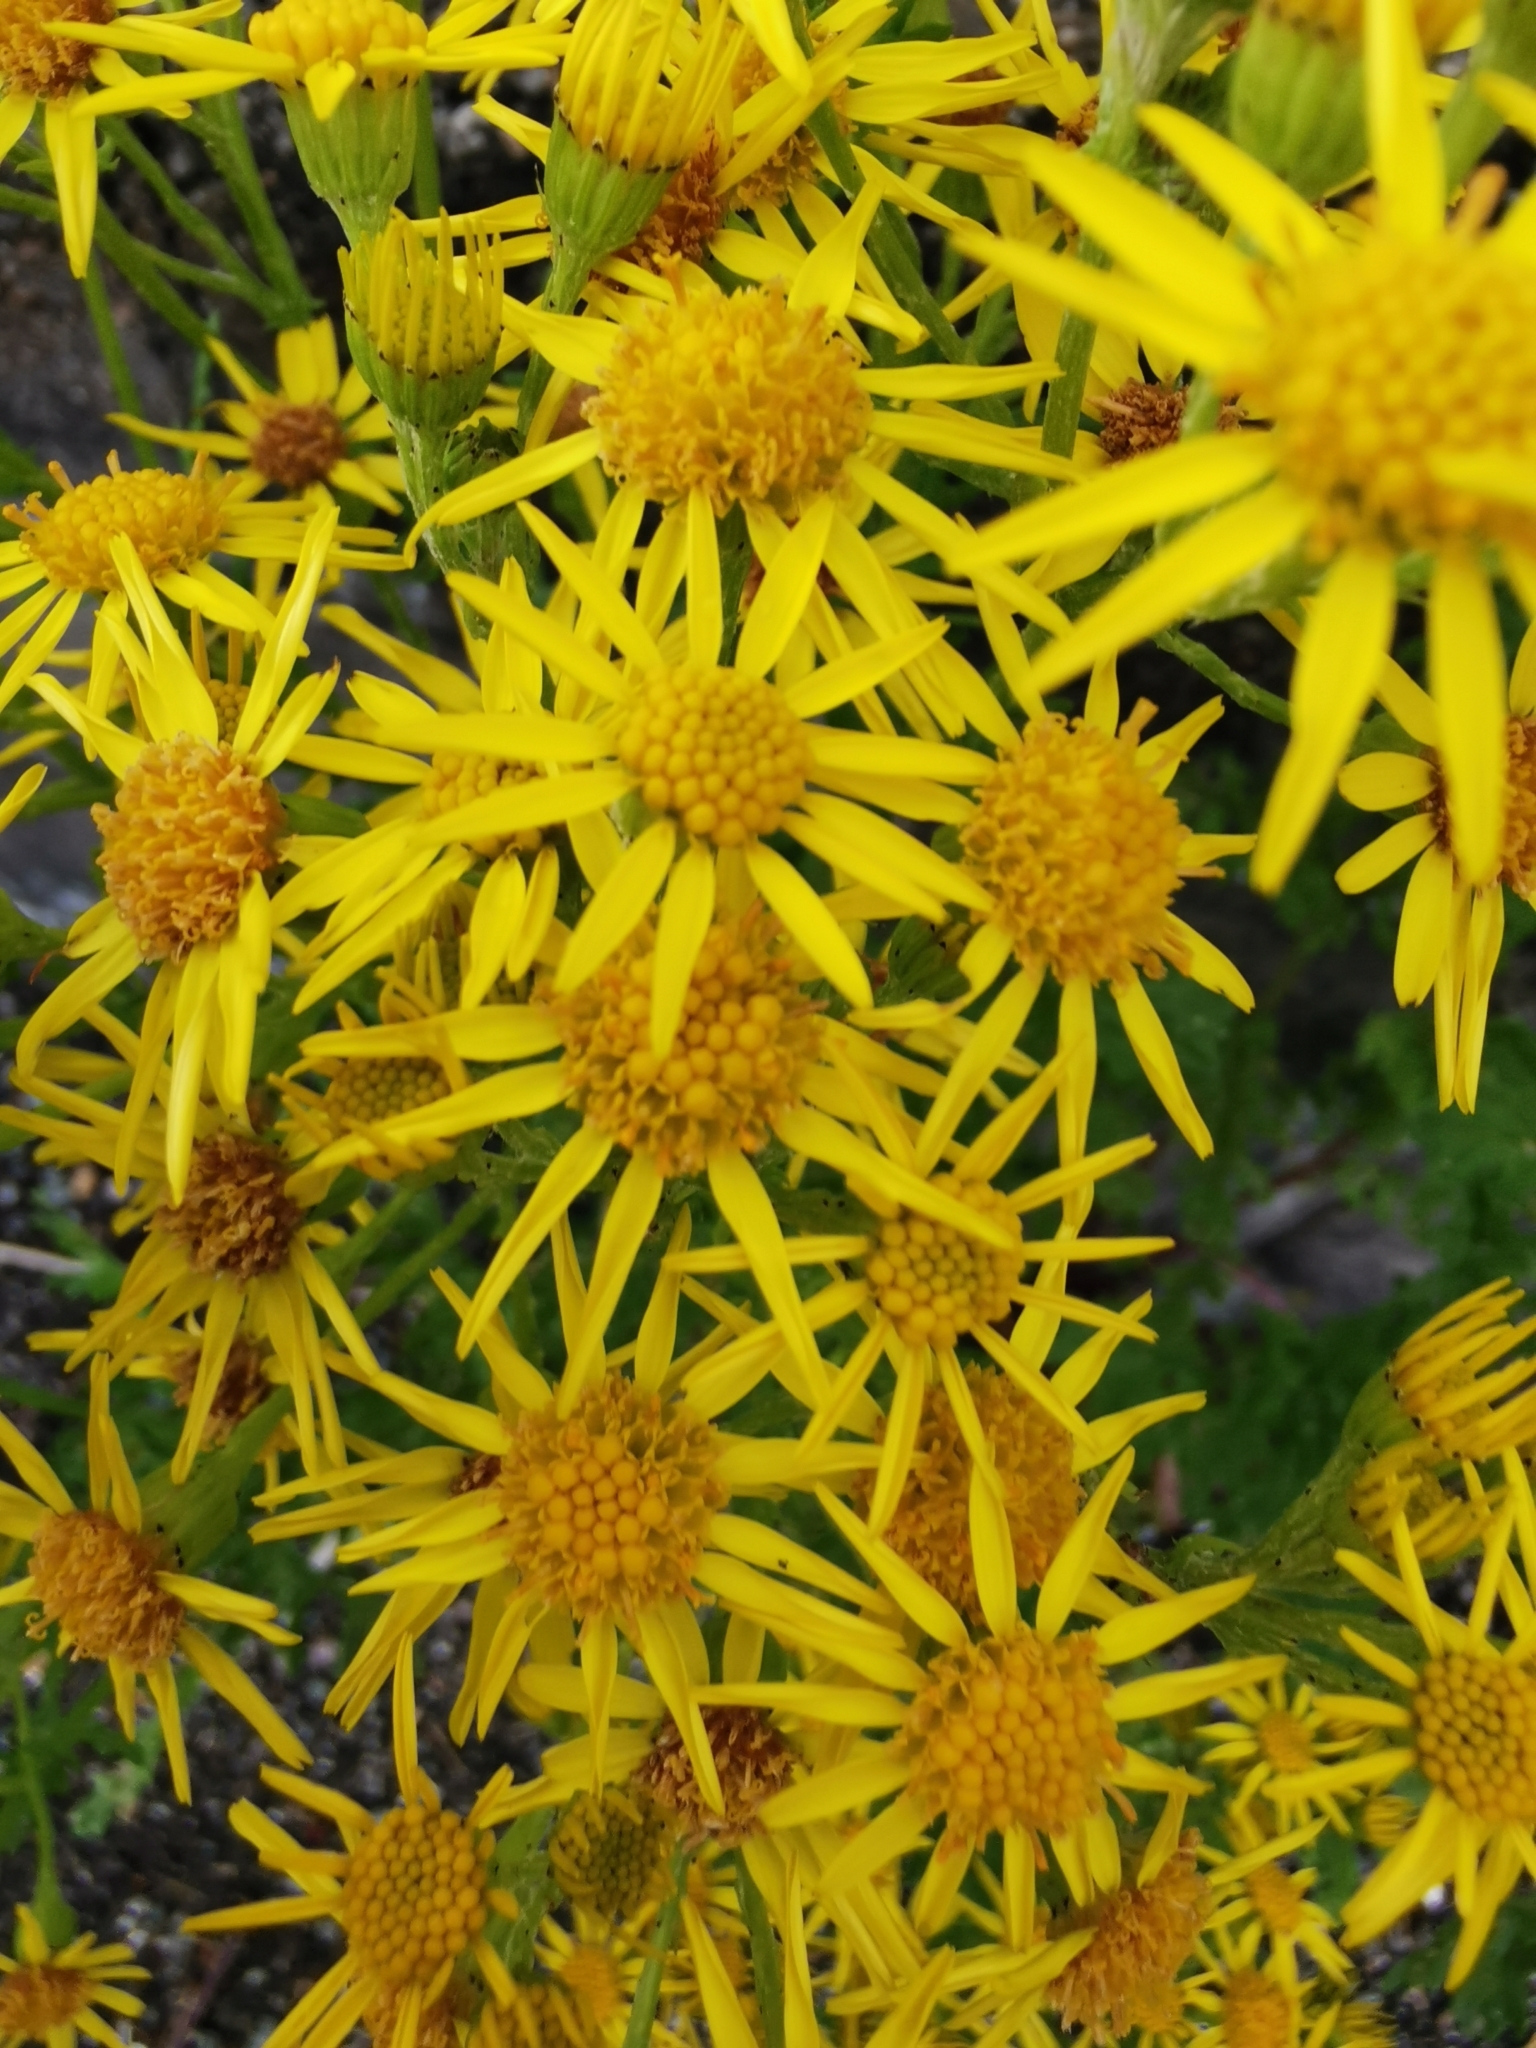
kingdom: Plantae
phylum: Tracheophyta
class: Magnoliopsida
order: Asterales
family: Asteraceae
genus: Jacobaea
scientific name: Jacobaea vulgaris
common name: Stinking willie
